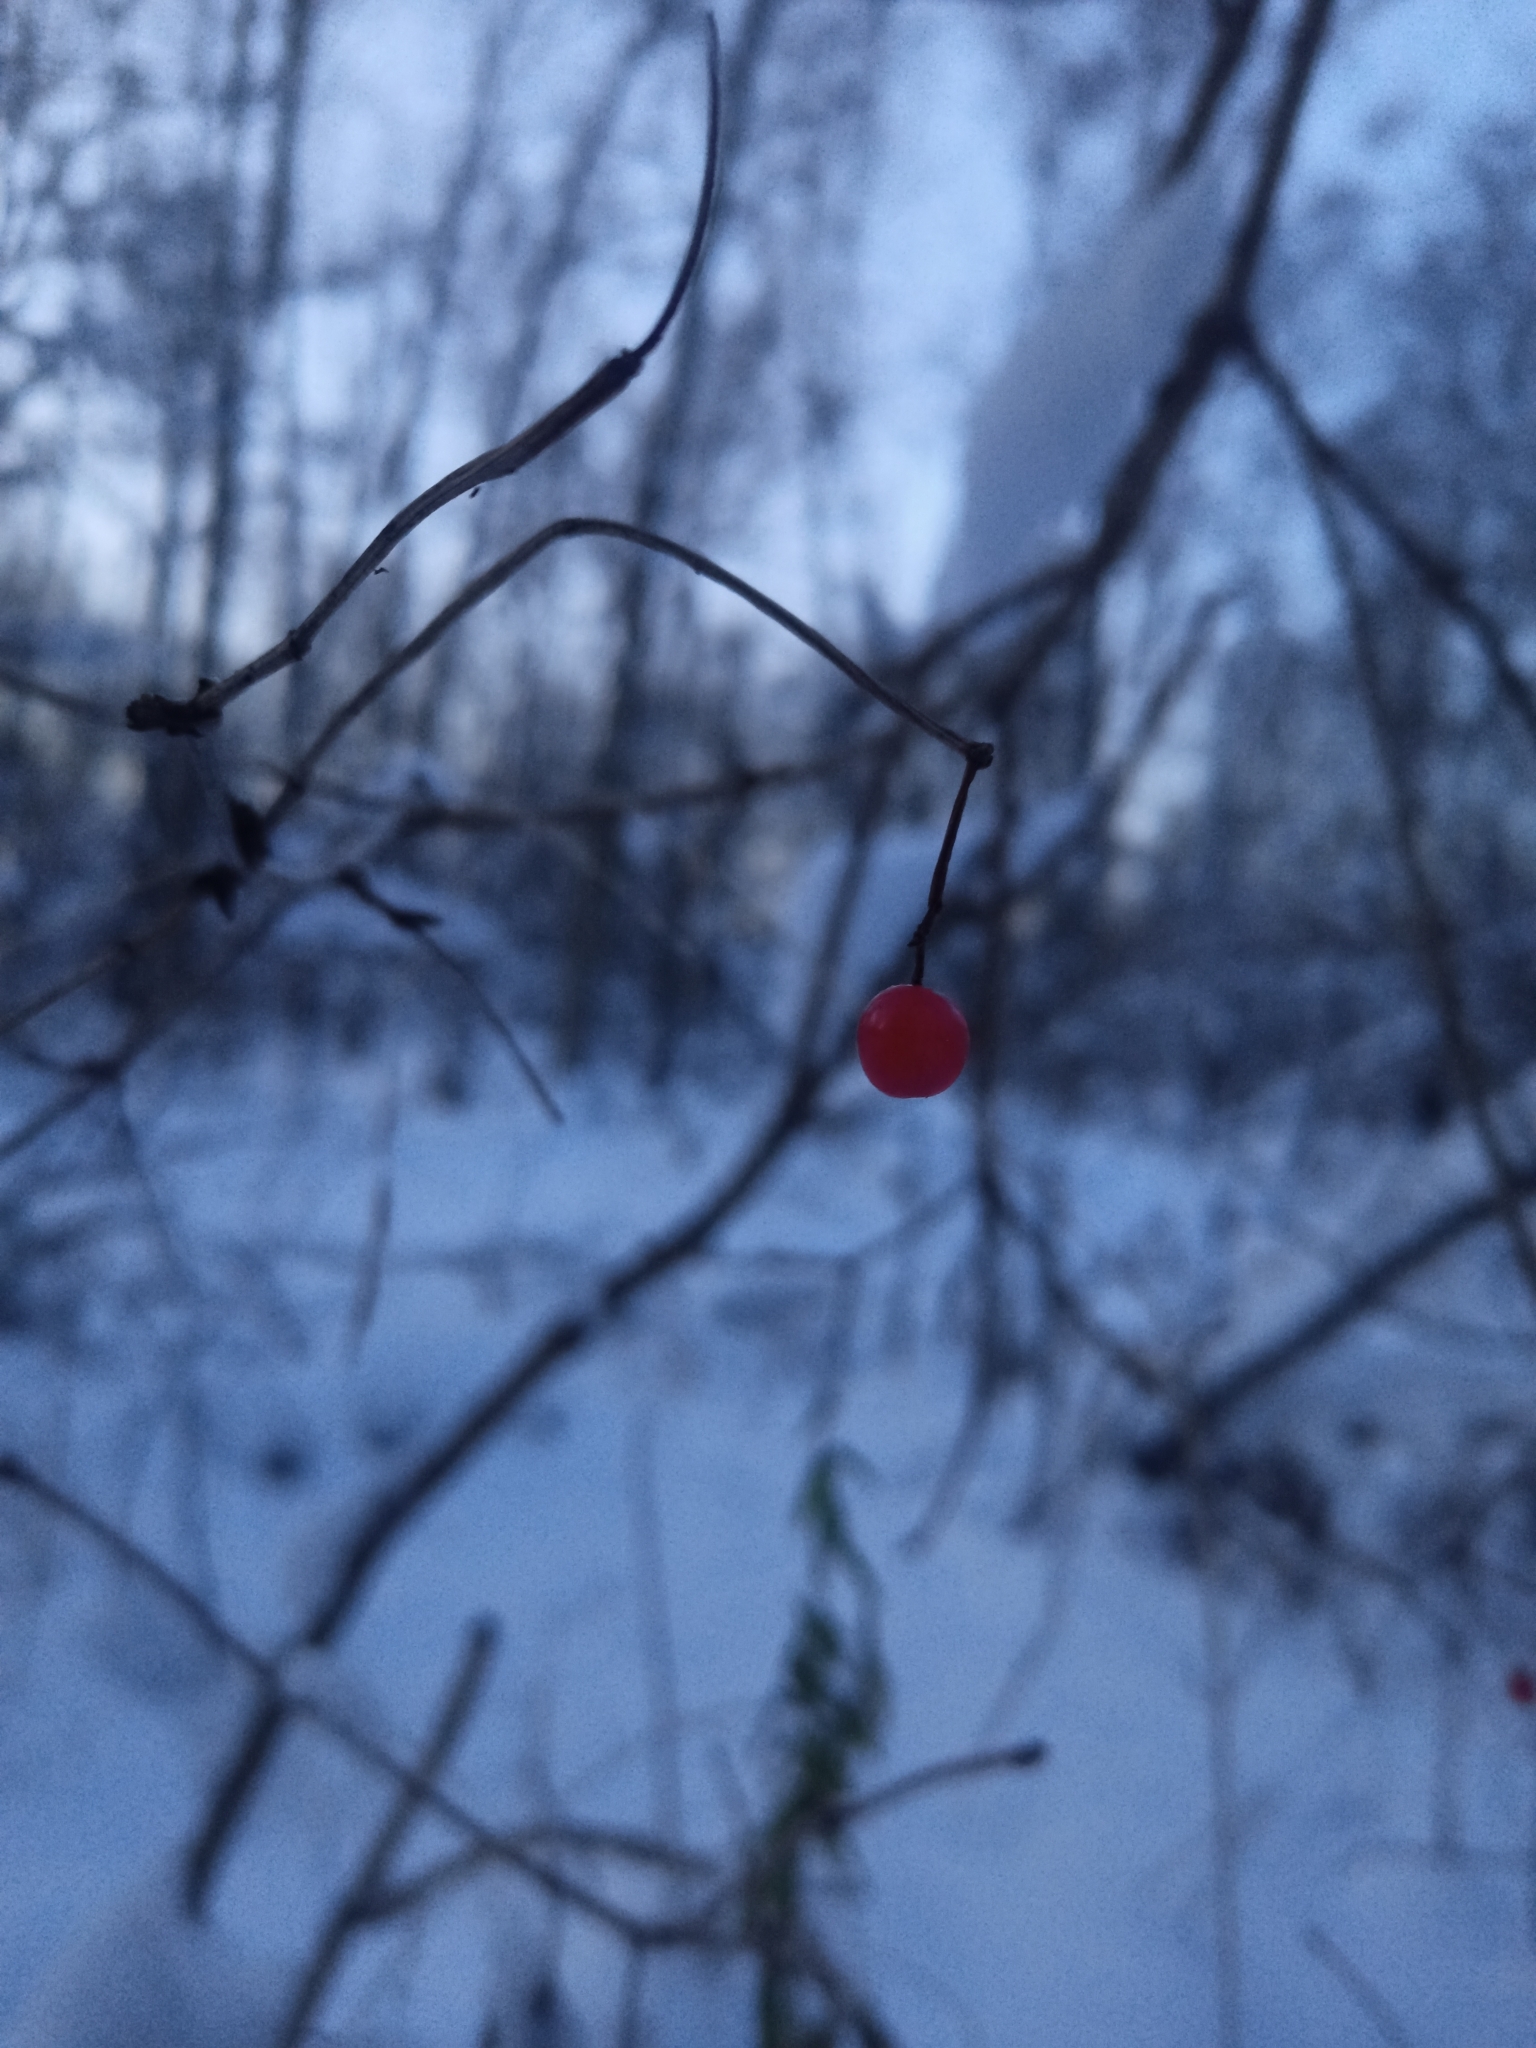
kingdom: Plantae
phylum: Tracheophyta
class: Magnoliopsida
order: Dipsacales
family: Viburnaceae
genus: Viburnum
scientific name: Viburnum opulus
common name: Guelder-rose
